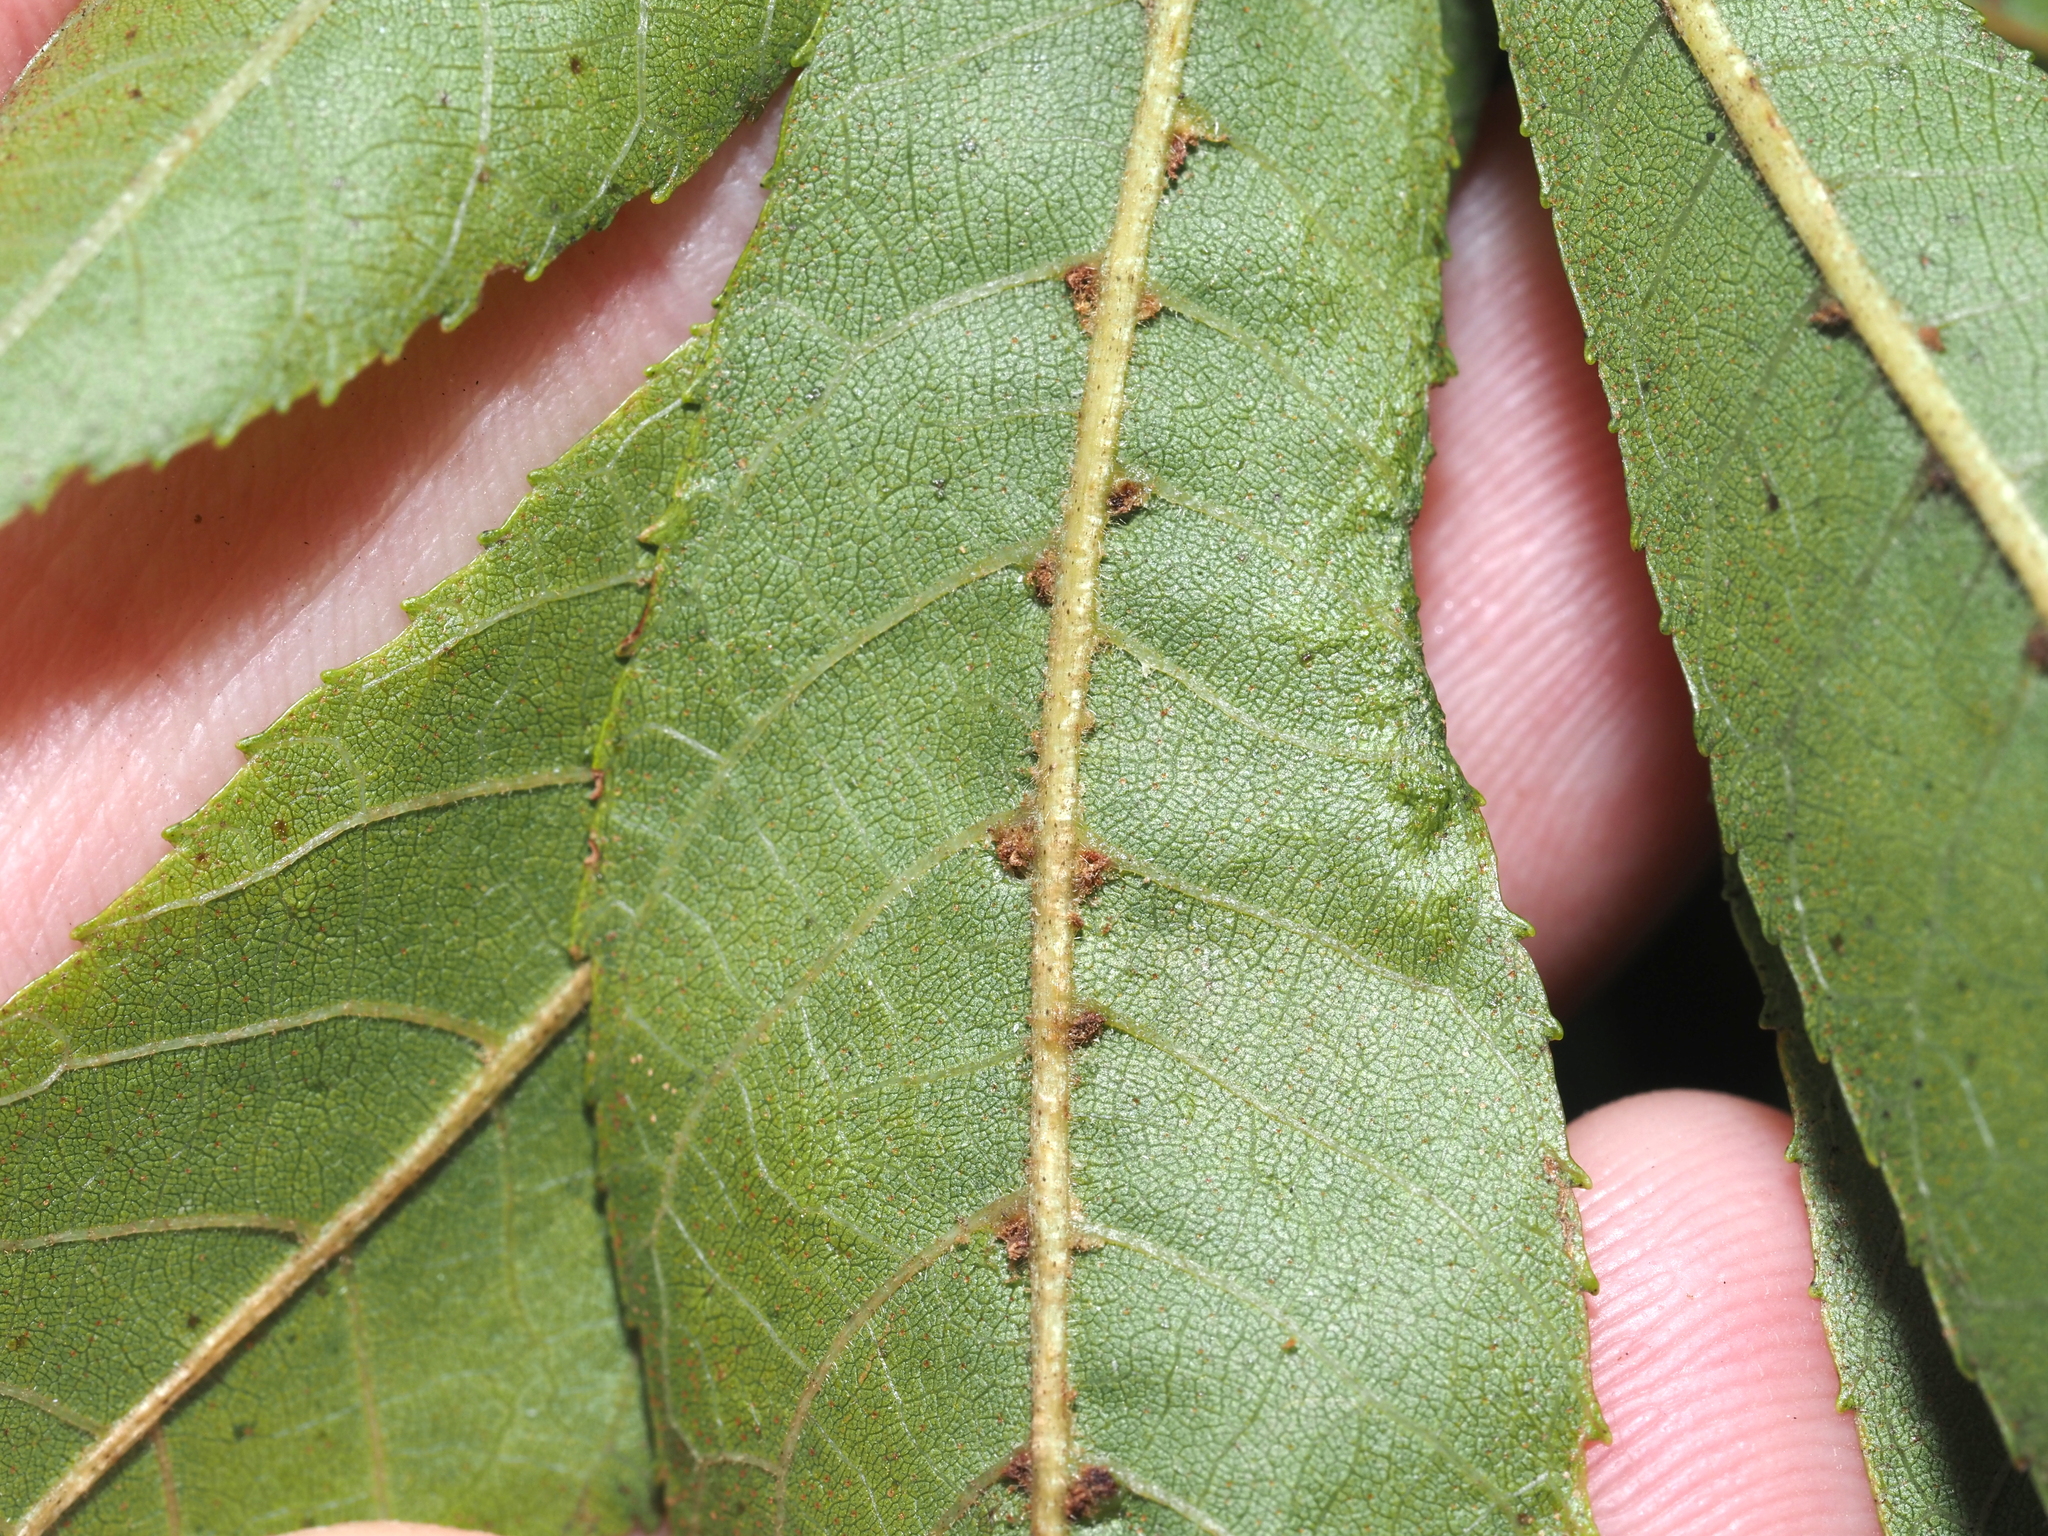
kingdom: Animalia
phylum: Arthropoda
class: Arachnida
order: Trombidiformes
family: Eriophyidae
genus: Aceria
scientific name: Aceria
